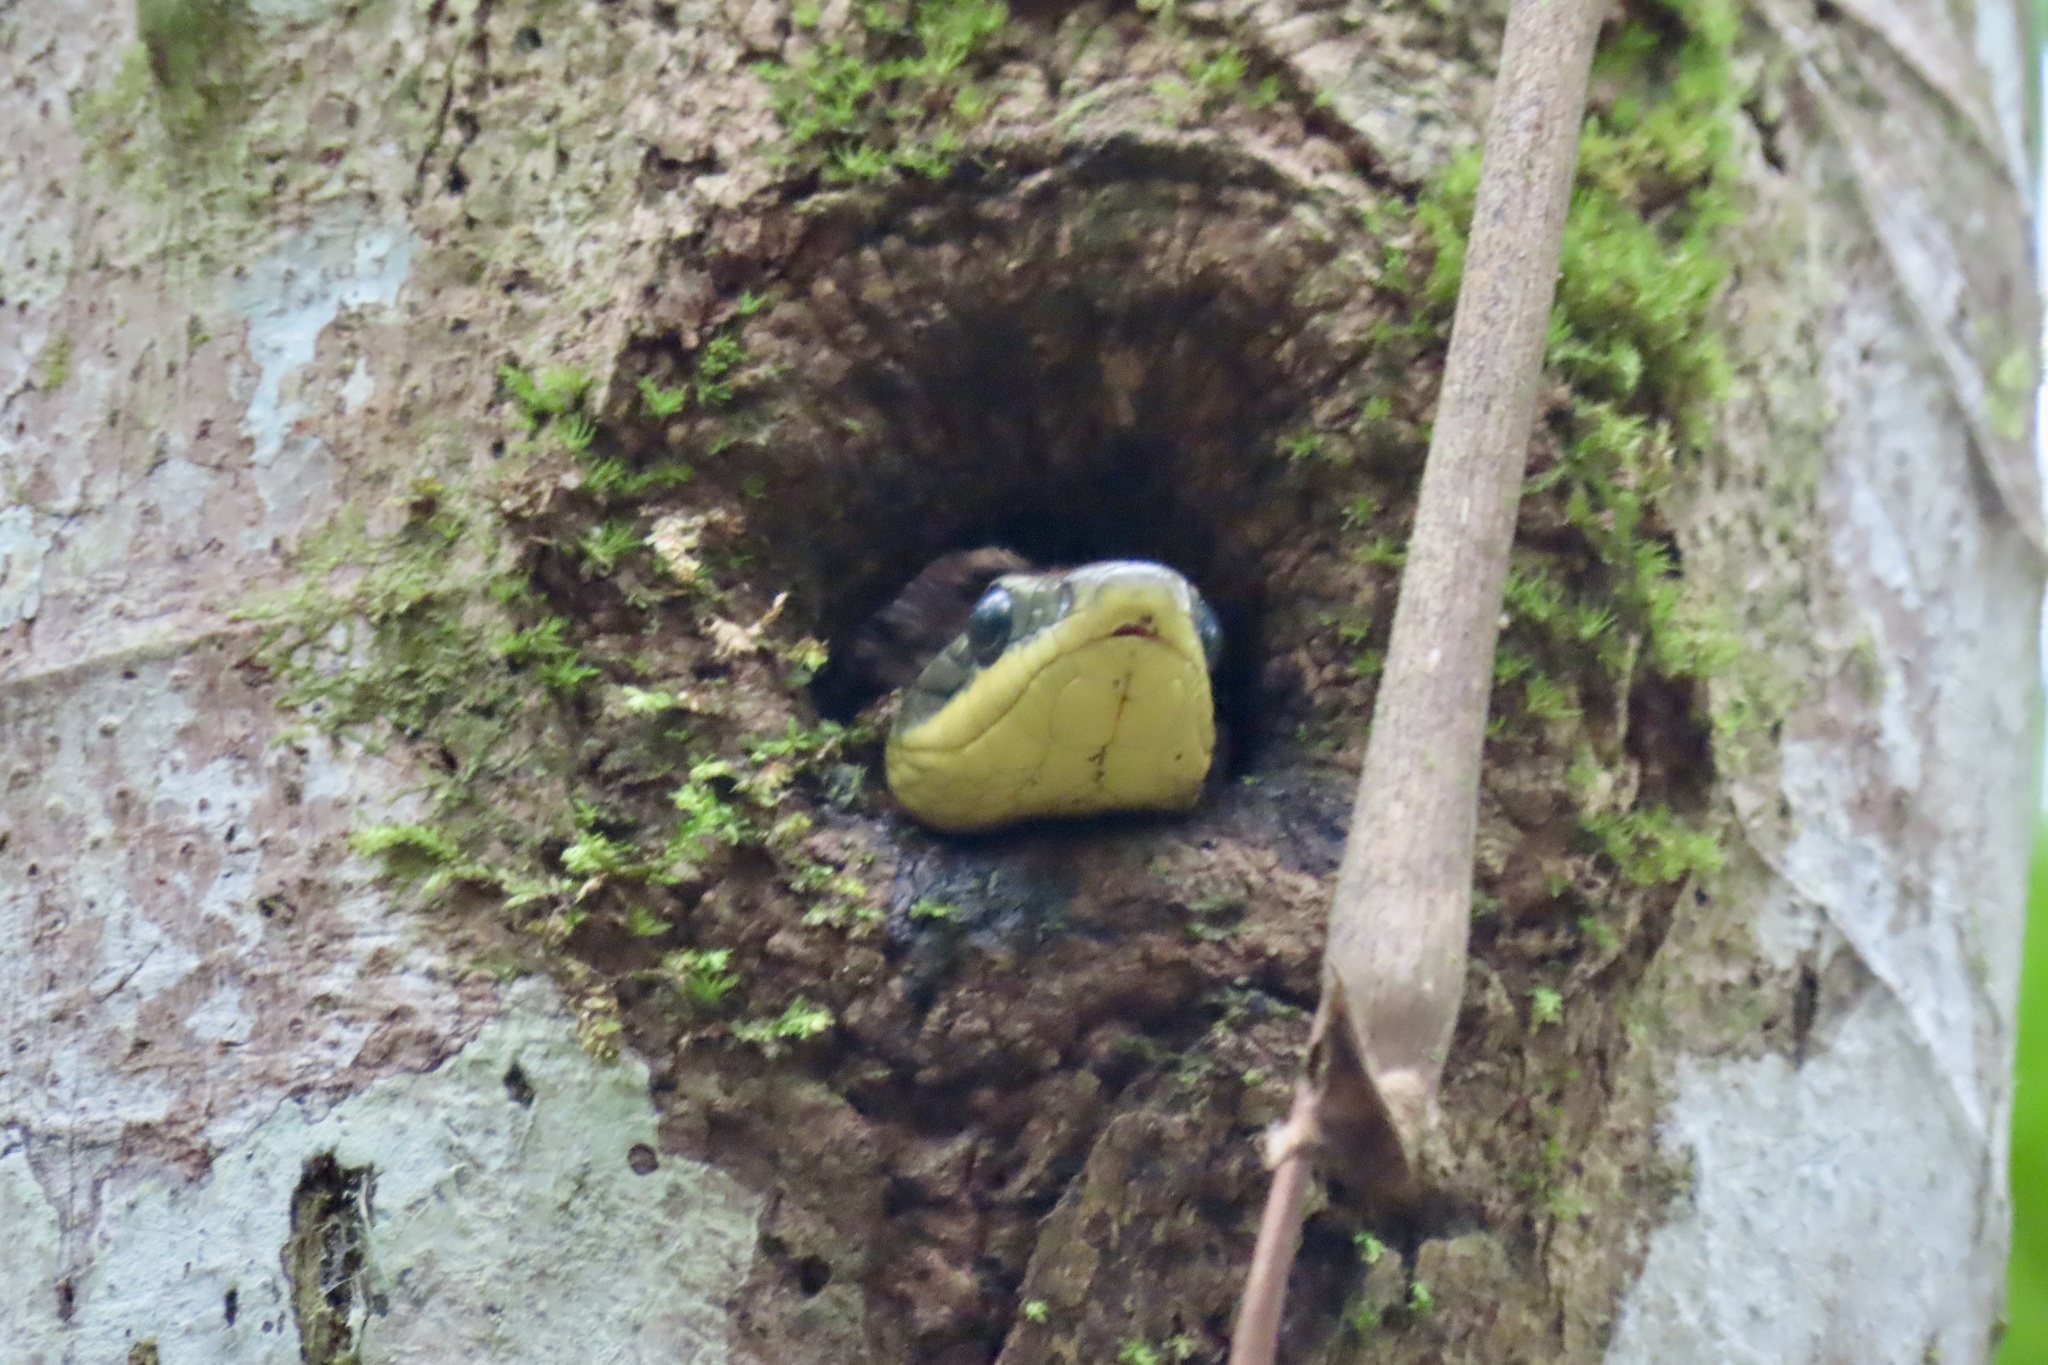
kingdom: Animalia
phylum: Chordata
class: Squamata
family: Colubridae
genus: Phrynonax
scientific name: Phrynonax poecilonotus
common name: Puffing snake
